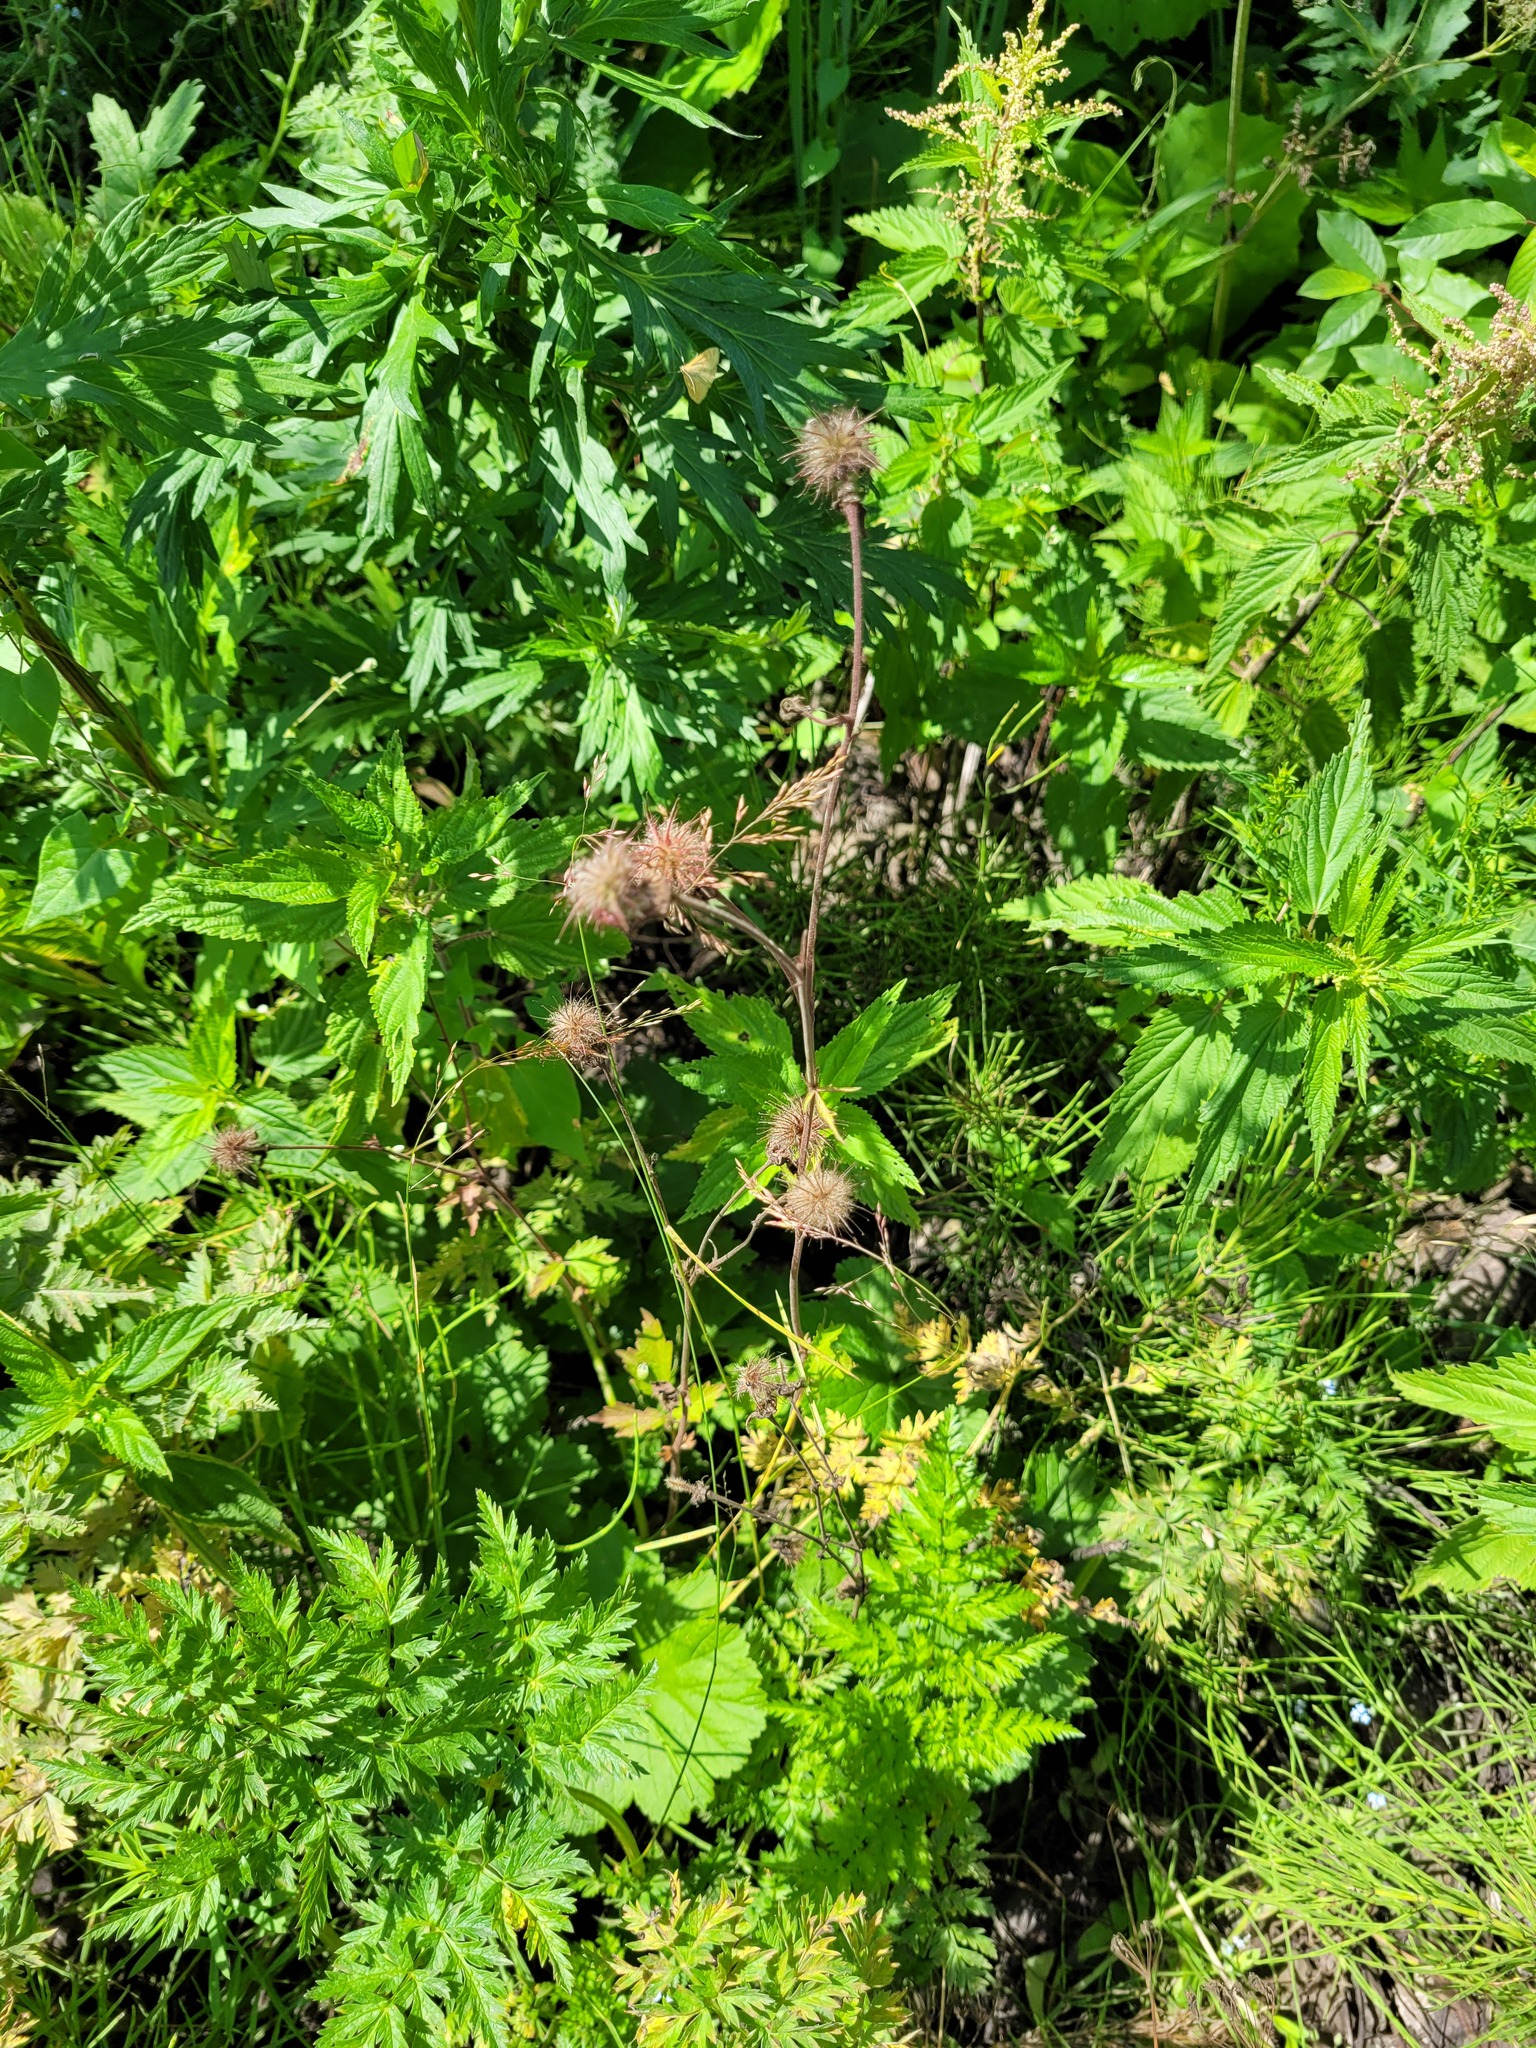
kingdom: Plantae
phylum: Tracheophyta
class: Magnoliopsida
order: Rosales
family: Rosaceae
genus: Geum
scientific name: Geum rivale
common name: Water avens
